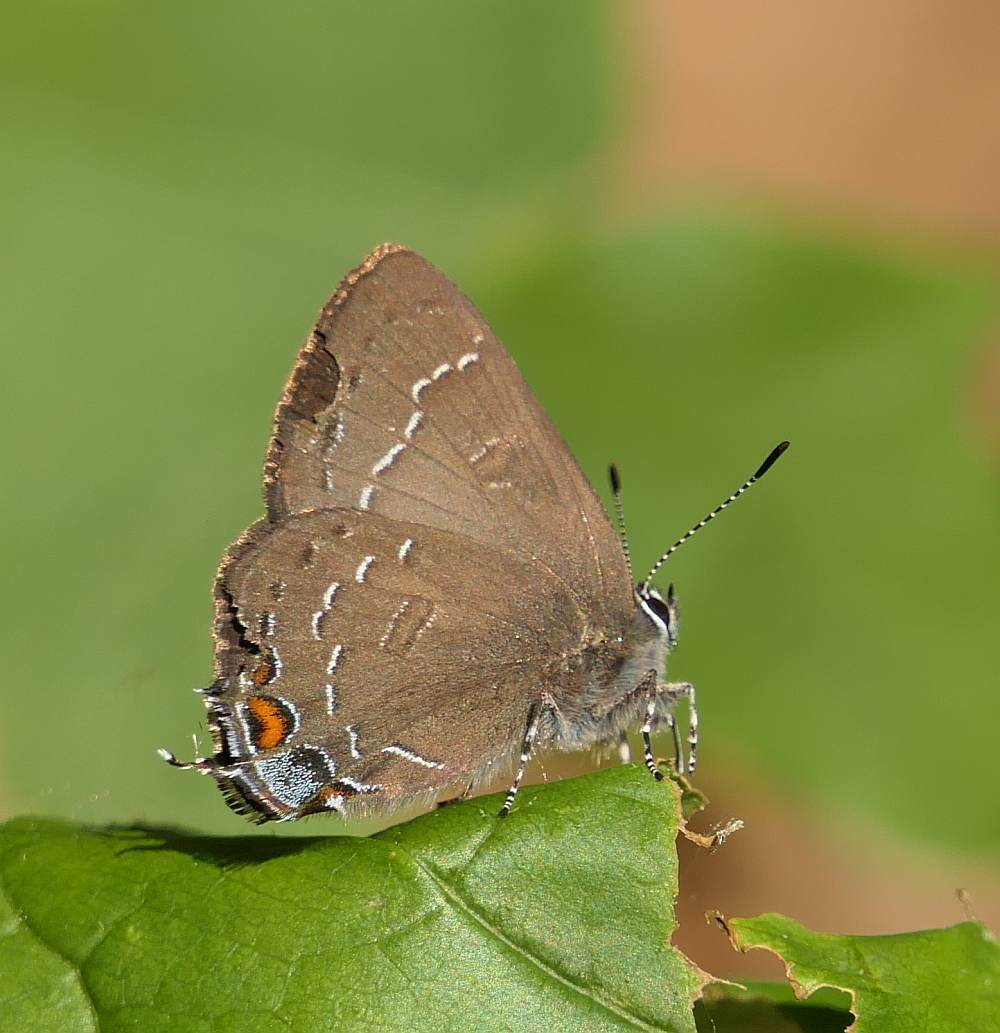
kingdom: Animalia
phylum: Arthropoda
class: Insecta
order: Lepidoptera
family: Lycaenidae
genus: Satyrium
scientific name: Satyrium calanus
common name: Banded hairstreak
